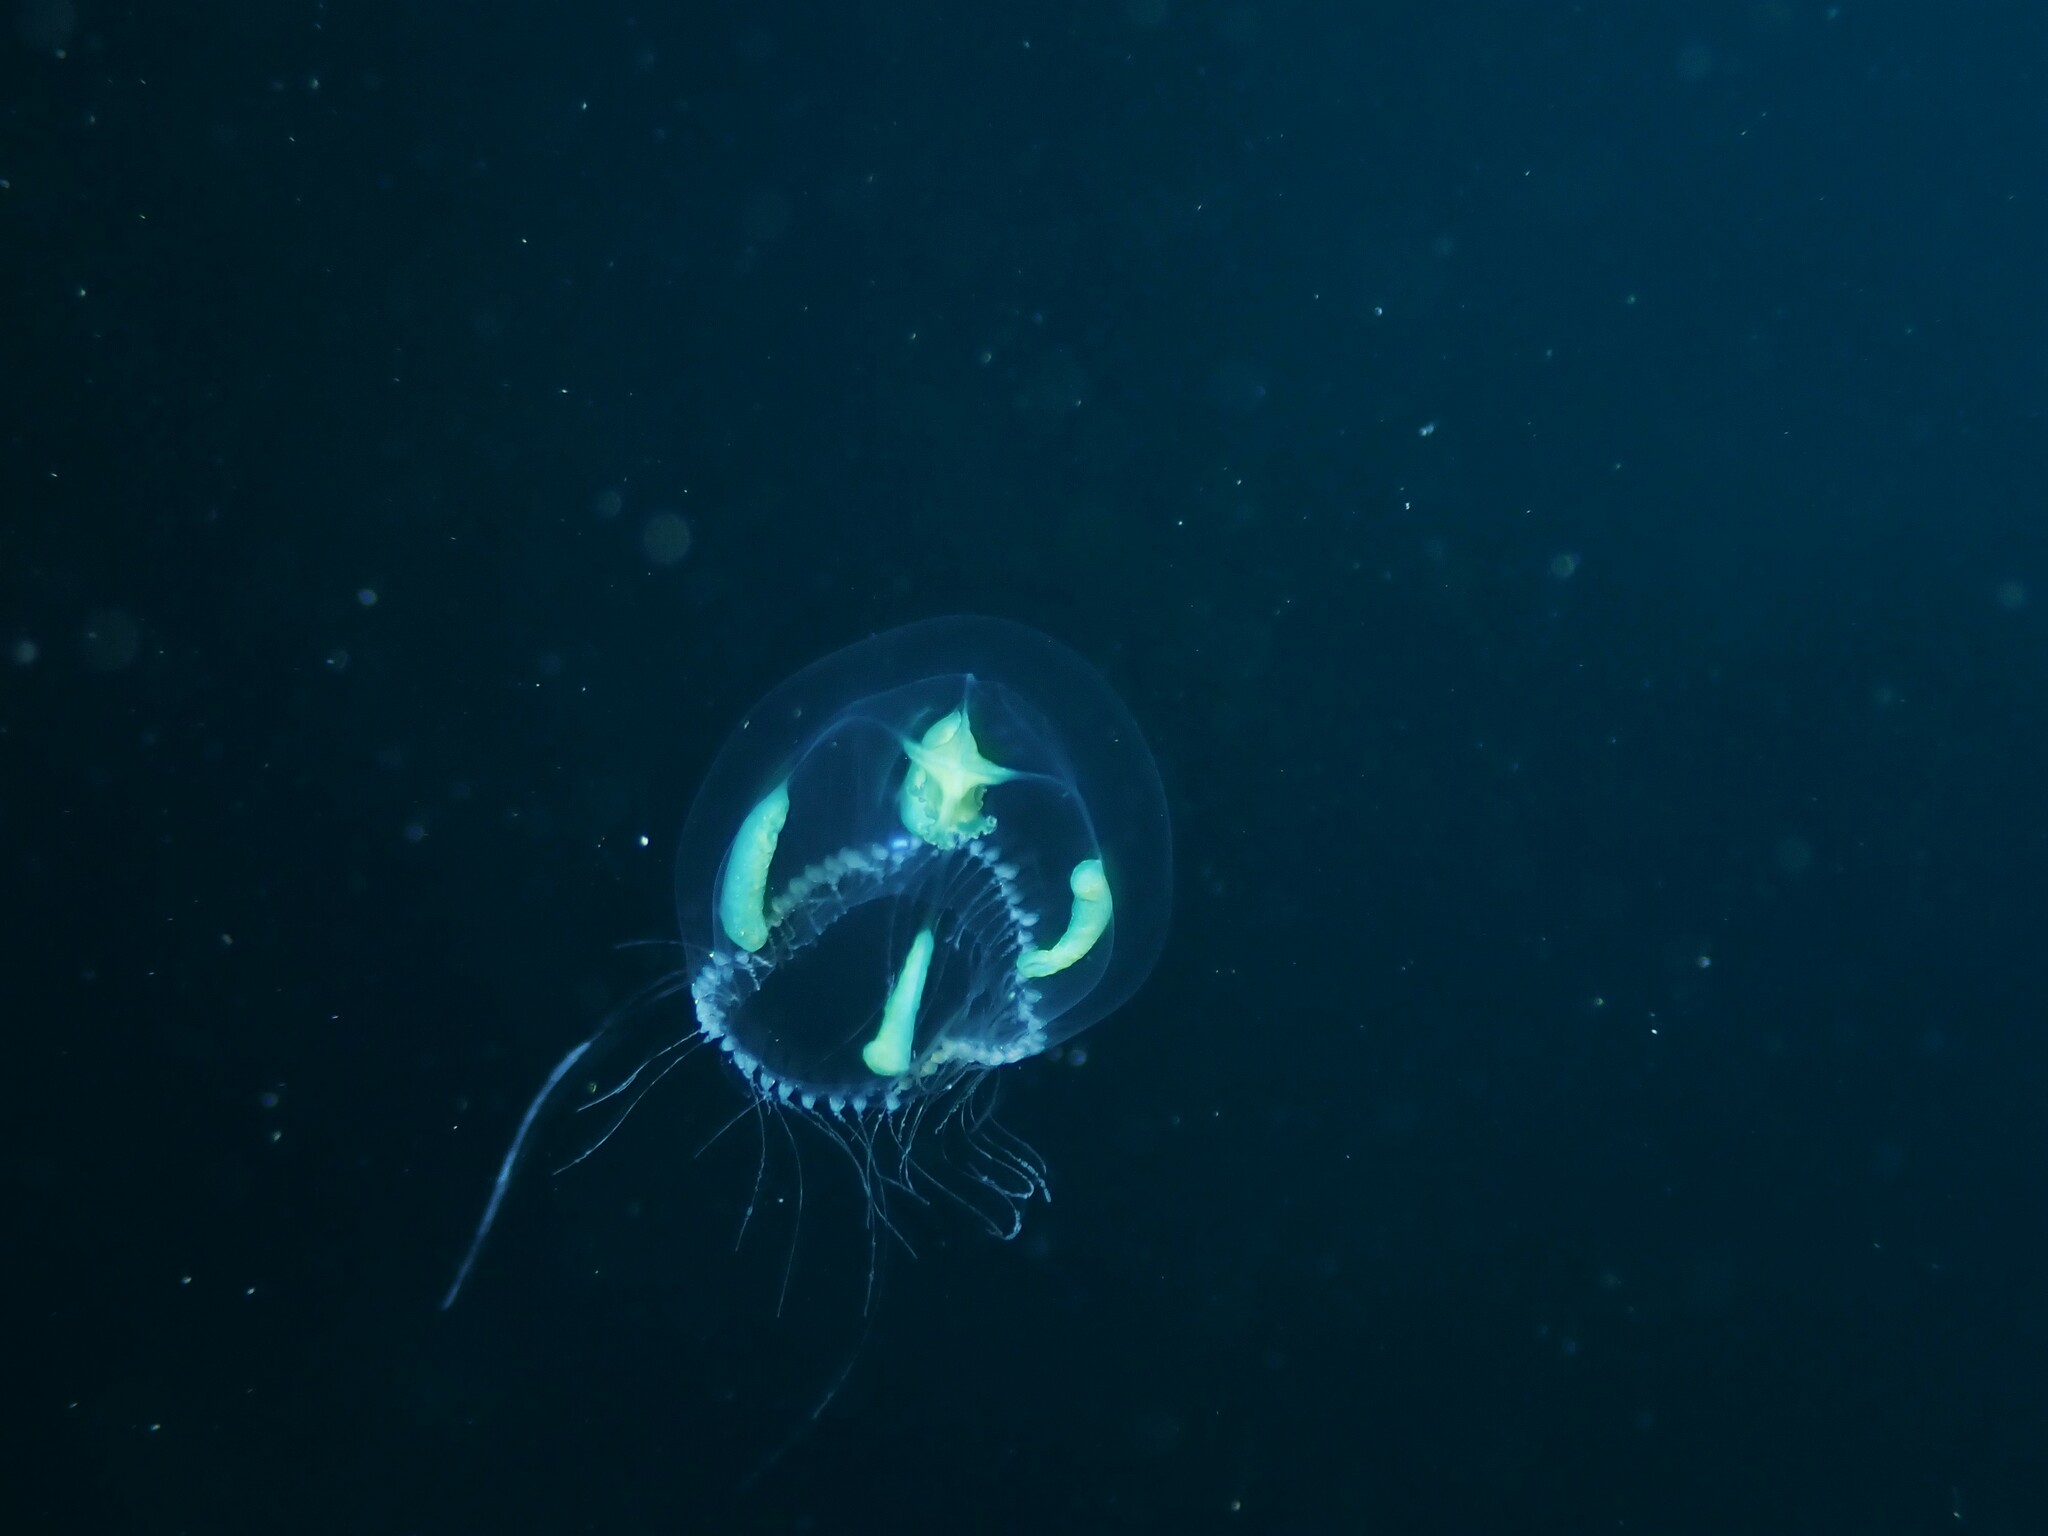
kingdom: Animalia
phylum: Cnidaria
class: Hydrozoa
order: Leptothecata
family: Phialellidae
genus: Phialella
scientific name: Phialella falklandica
